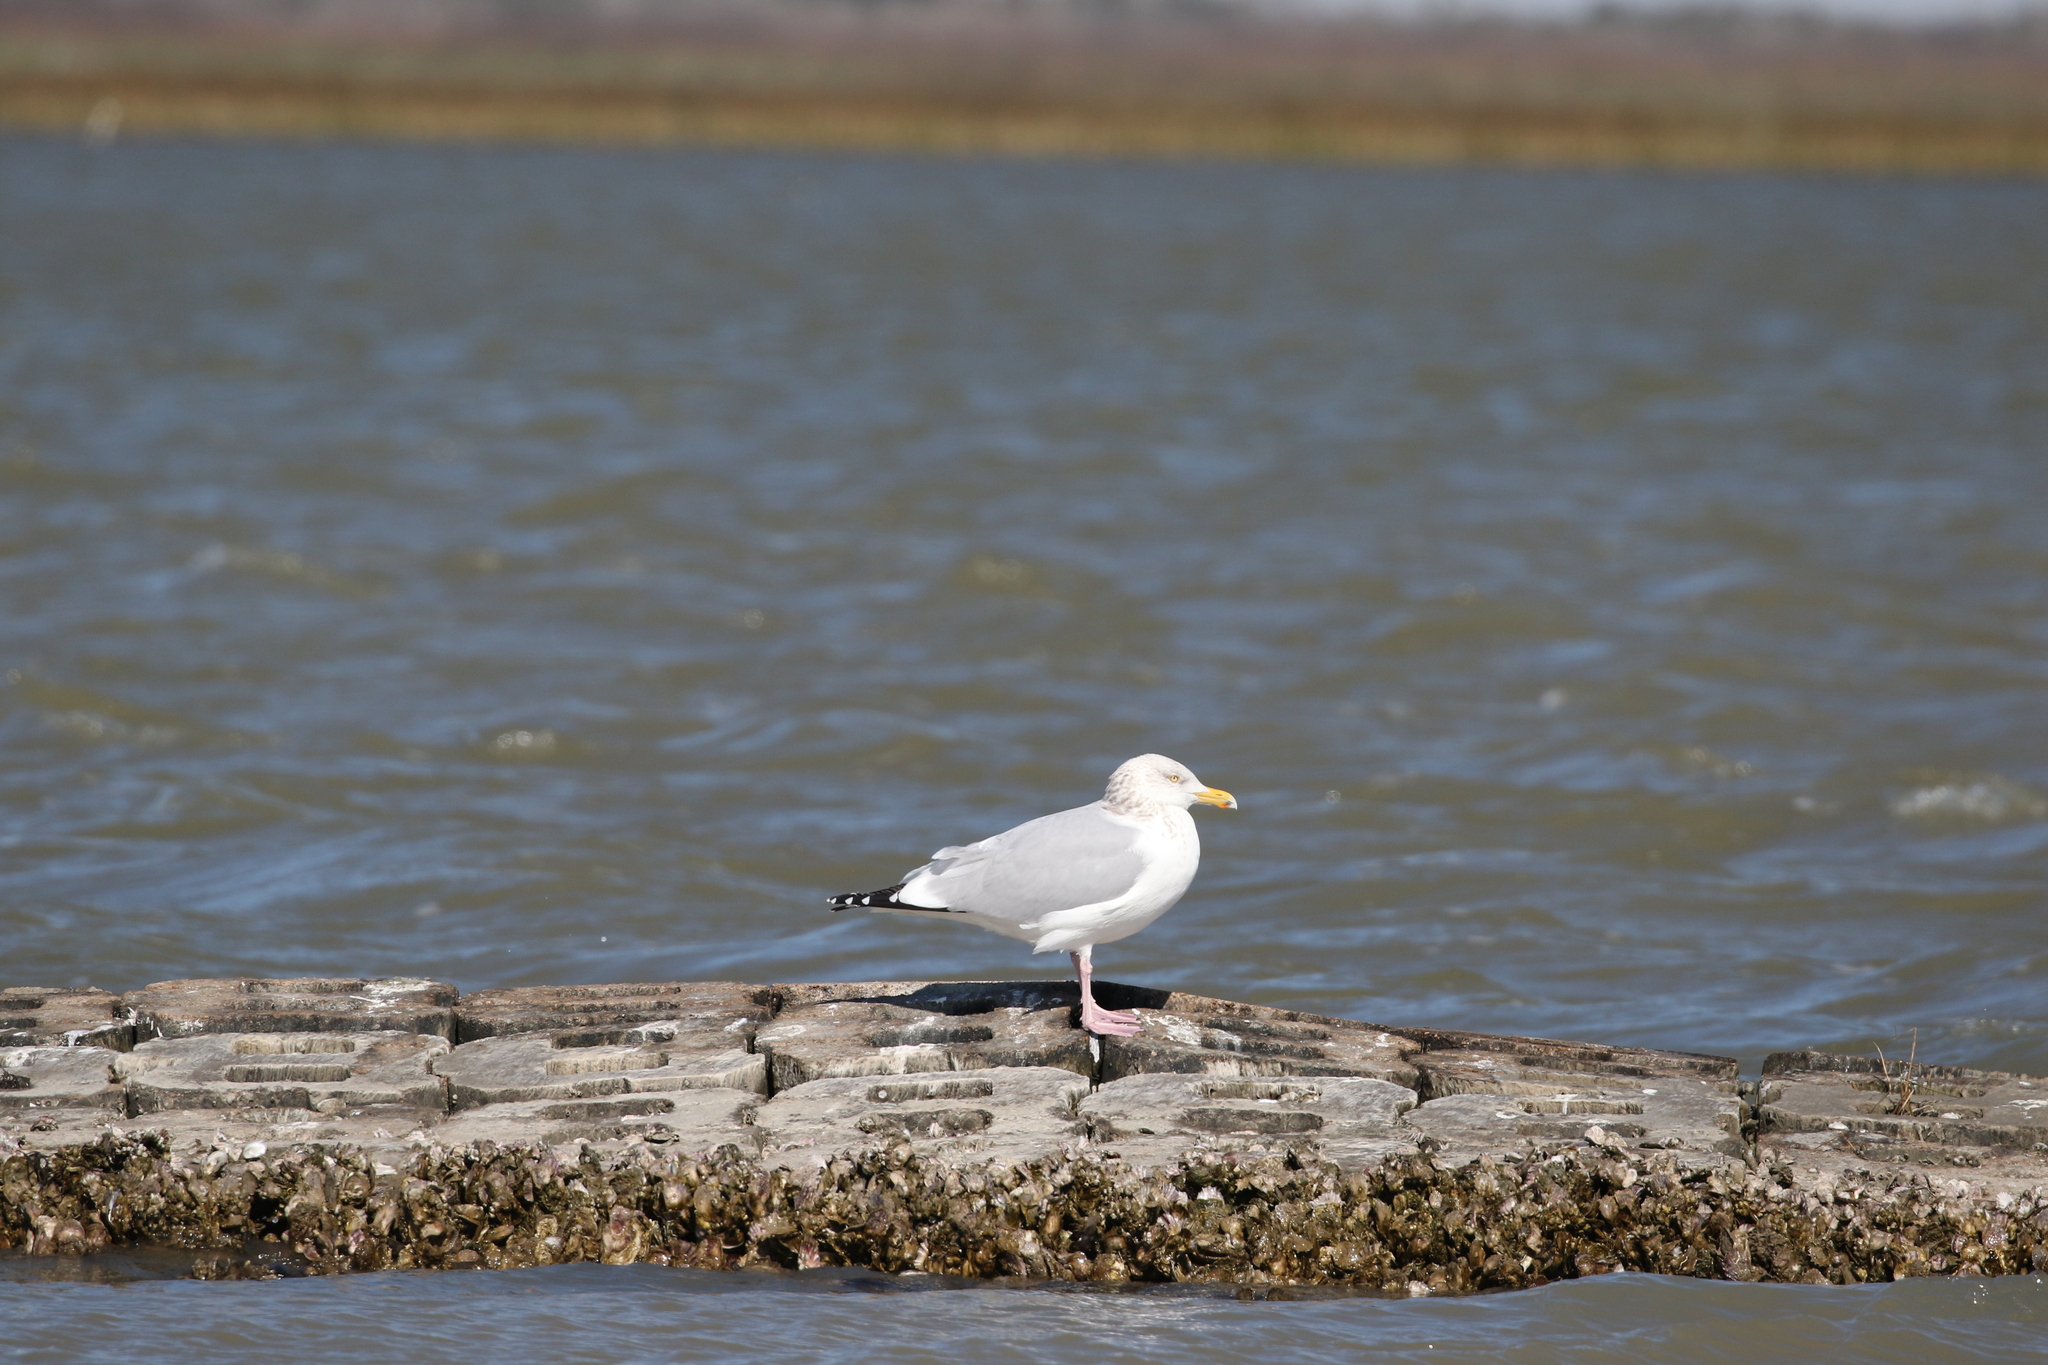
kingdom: Animalia
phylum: Chordata
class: Aves
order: Charadriiformes
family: Laridae
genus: Larus
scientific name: Larus argentatus
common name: Herring gull
